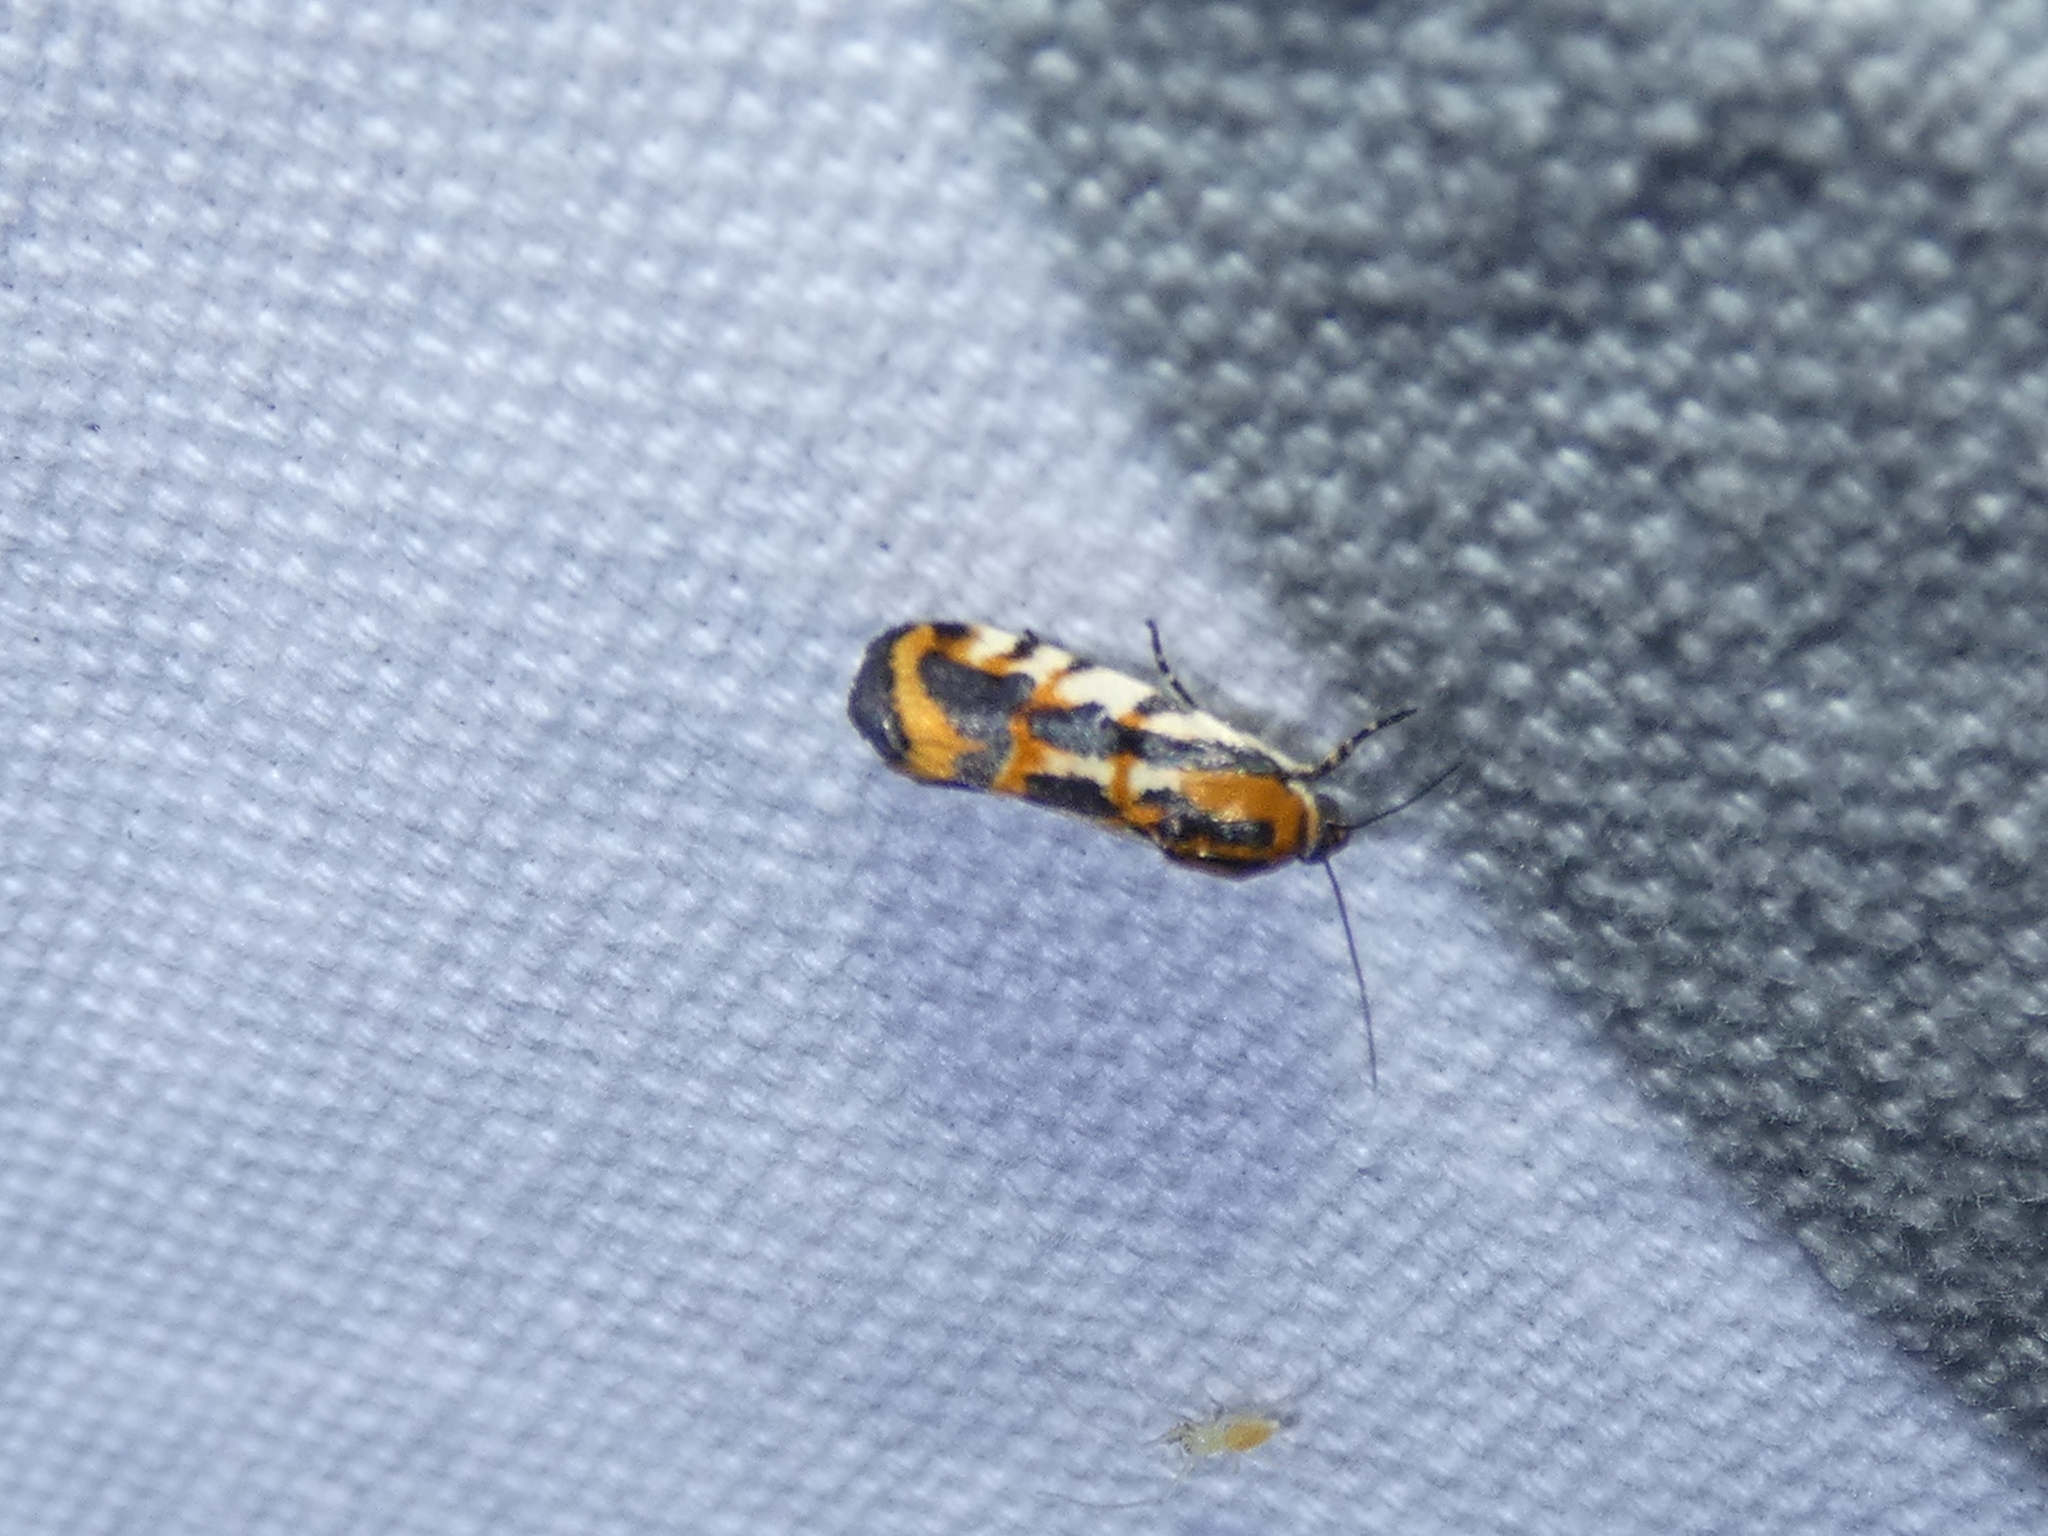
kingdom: Animalia
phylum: Arthropoda
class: Insecta
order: Lepidoptera
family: Noctuidae
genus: Acontia
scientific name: Acontia leo
